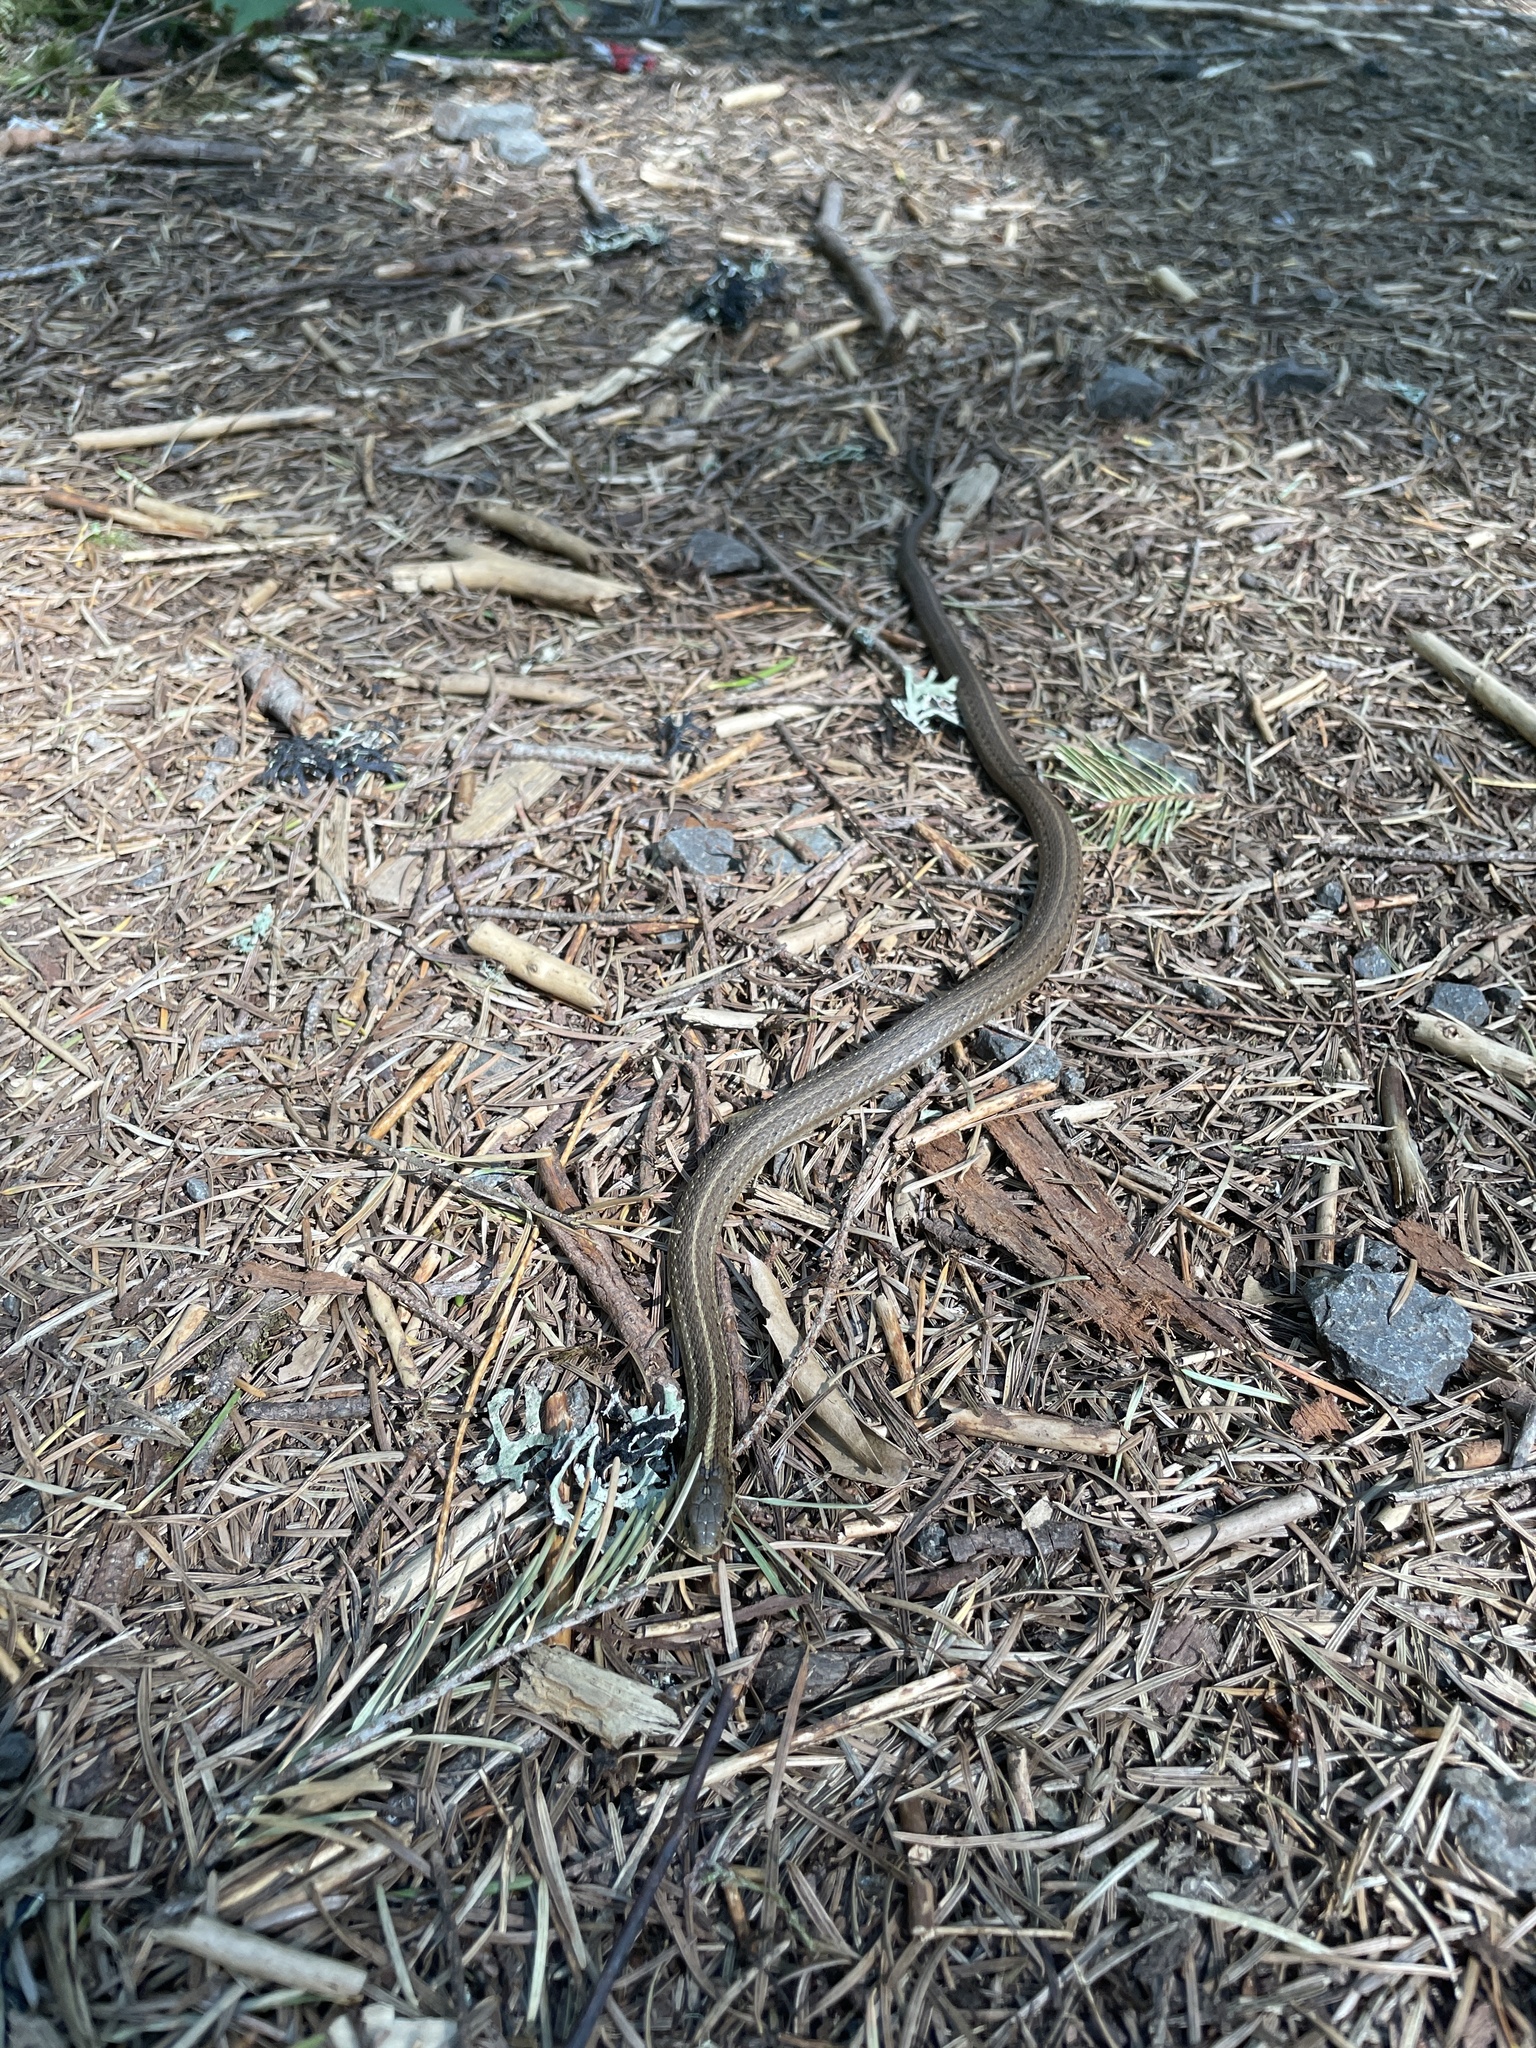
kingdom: Animalia
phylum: Chordata
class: Squamata
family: Colubridae
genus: Thamnophis
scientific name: Thamnophis ordinoides
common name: Northwestern garter snake
